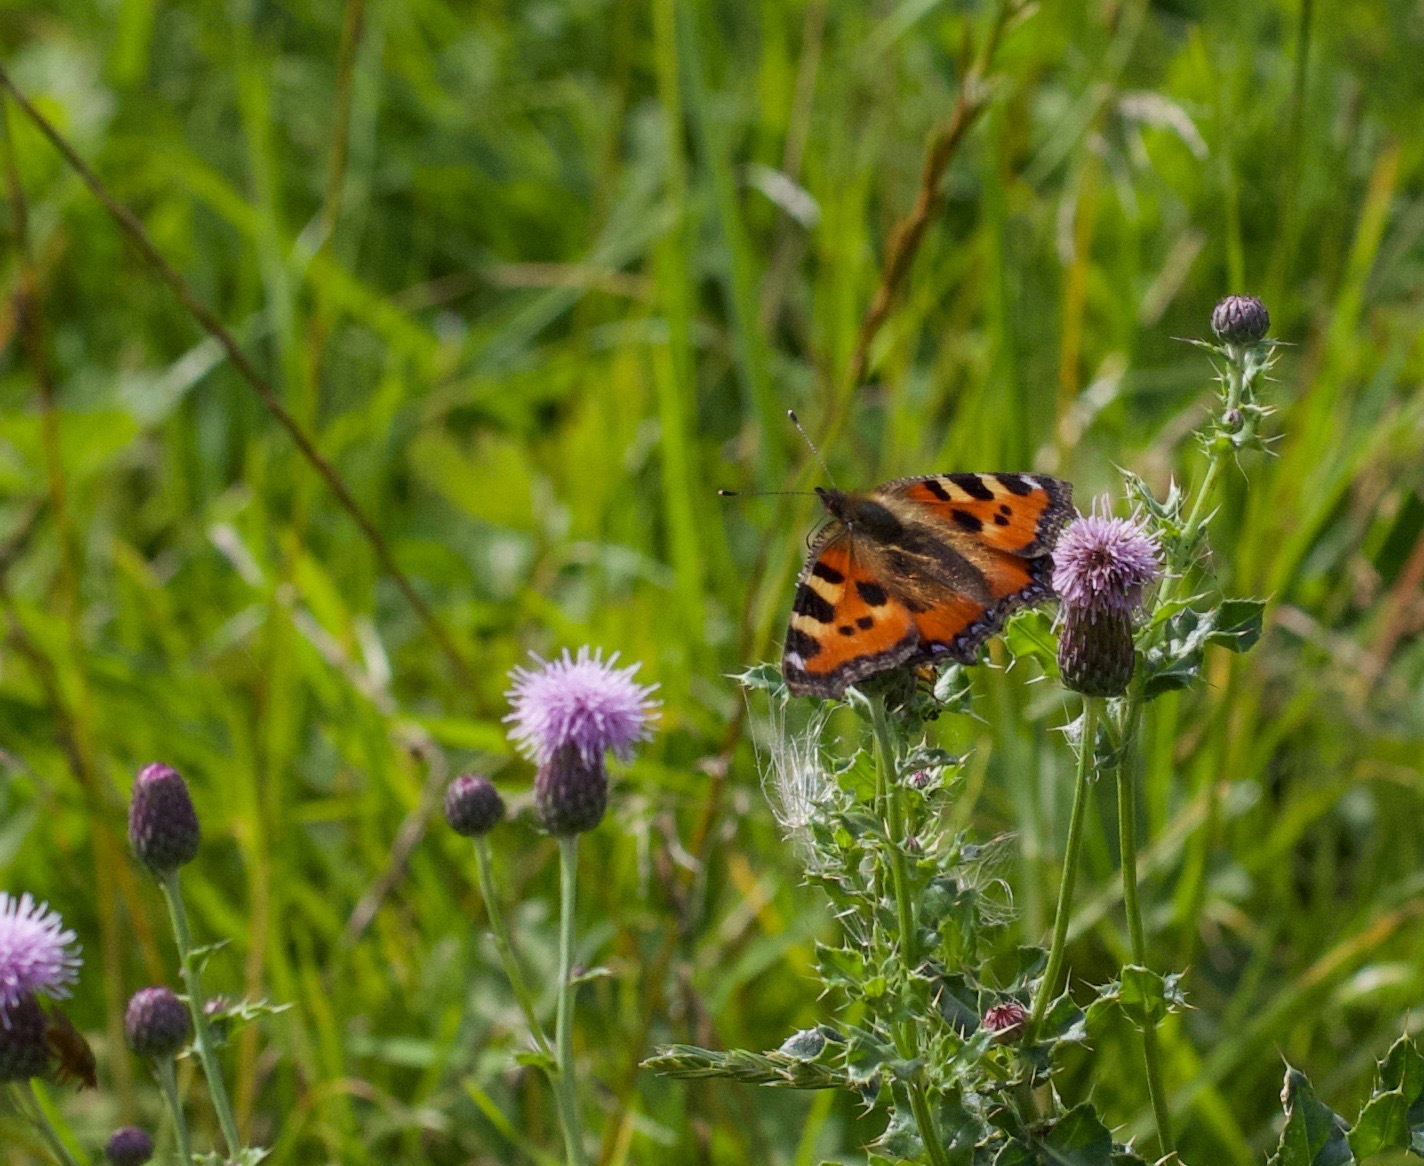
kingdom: Animalia
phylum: Arthropoda
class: Insecta
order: Lepidoptera
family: Nymphalidae
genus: Aglais
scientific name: Aglais urticae
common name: Small tortoiseshell
